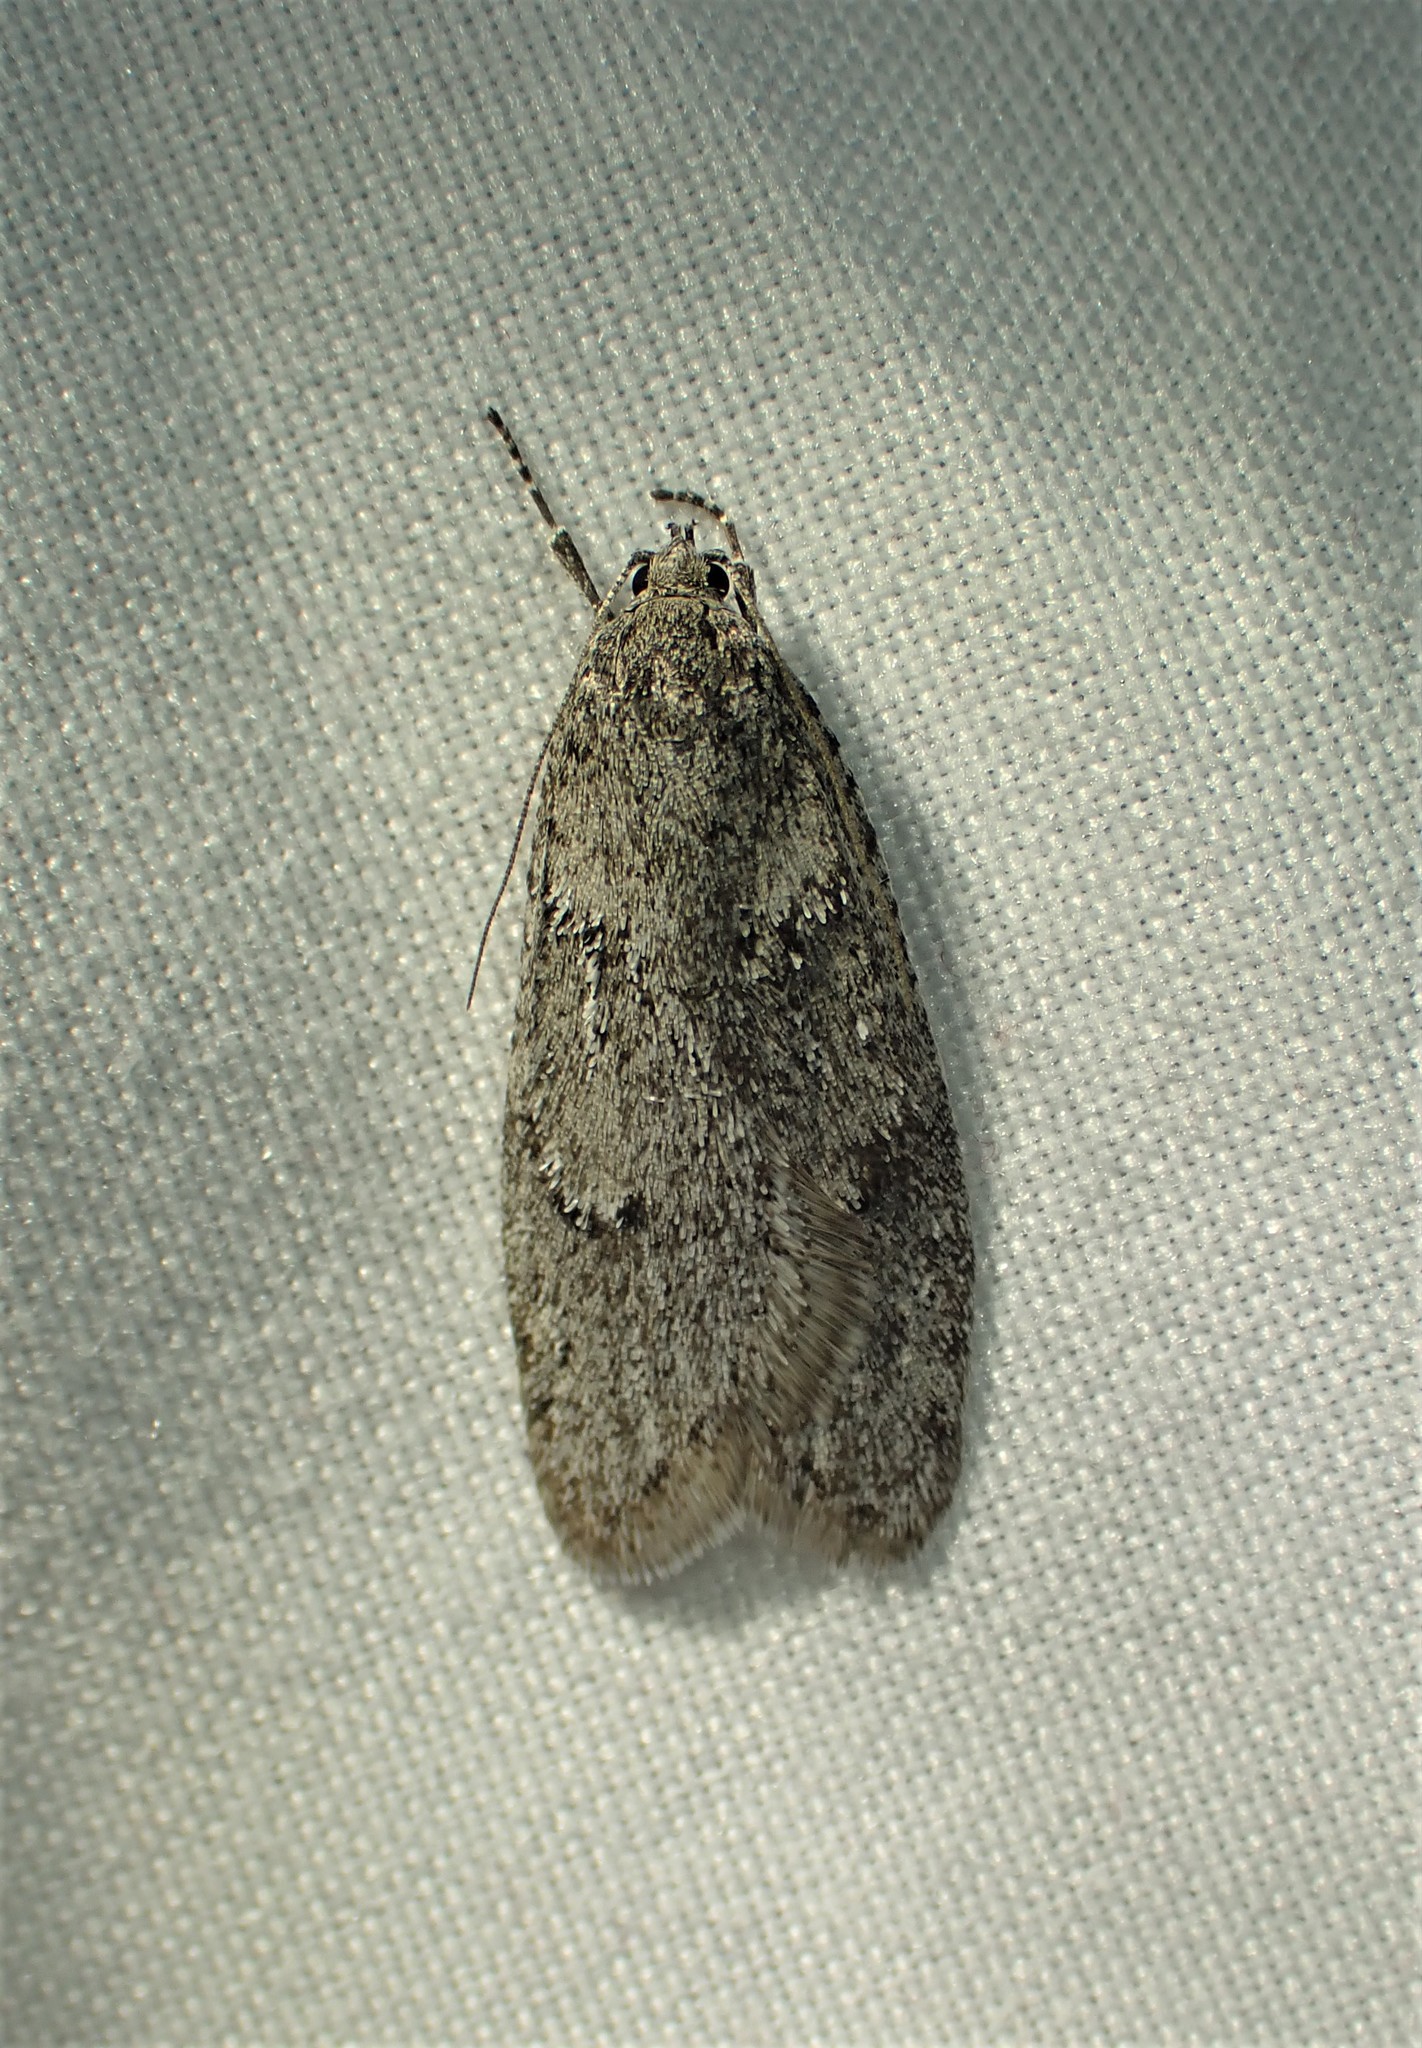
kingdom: Animalia
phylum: Arthropoda
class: Insecta
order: Lepidoptera
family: Depressariidae
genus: Semioscopis
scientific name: Semioscopis inornata
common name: Poplar micromoth
